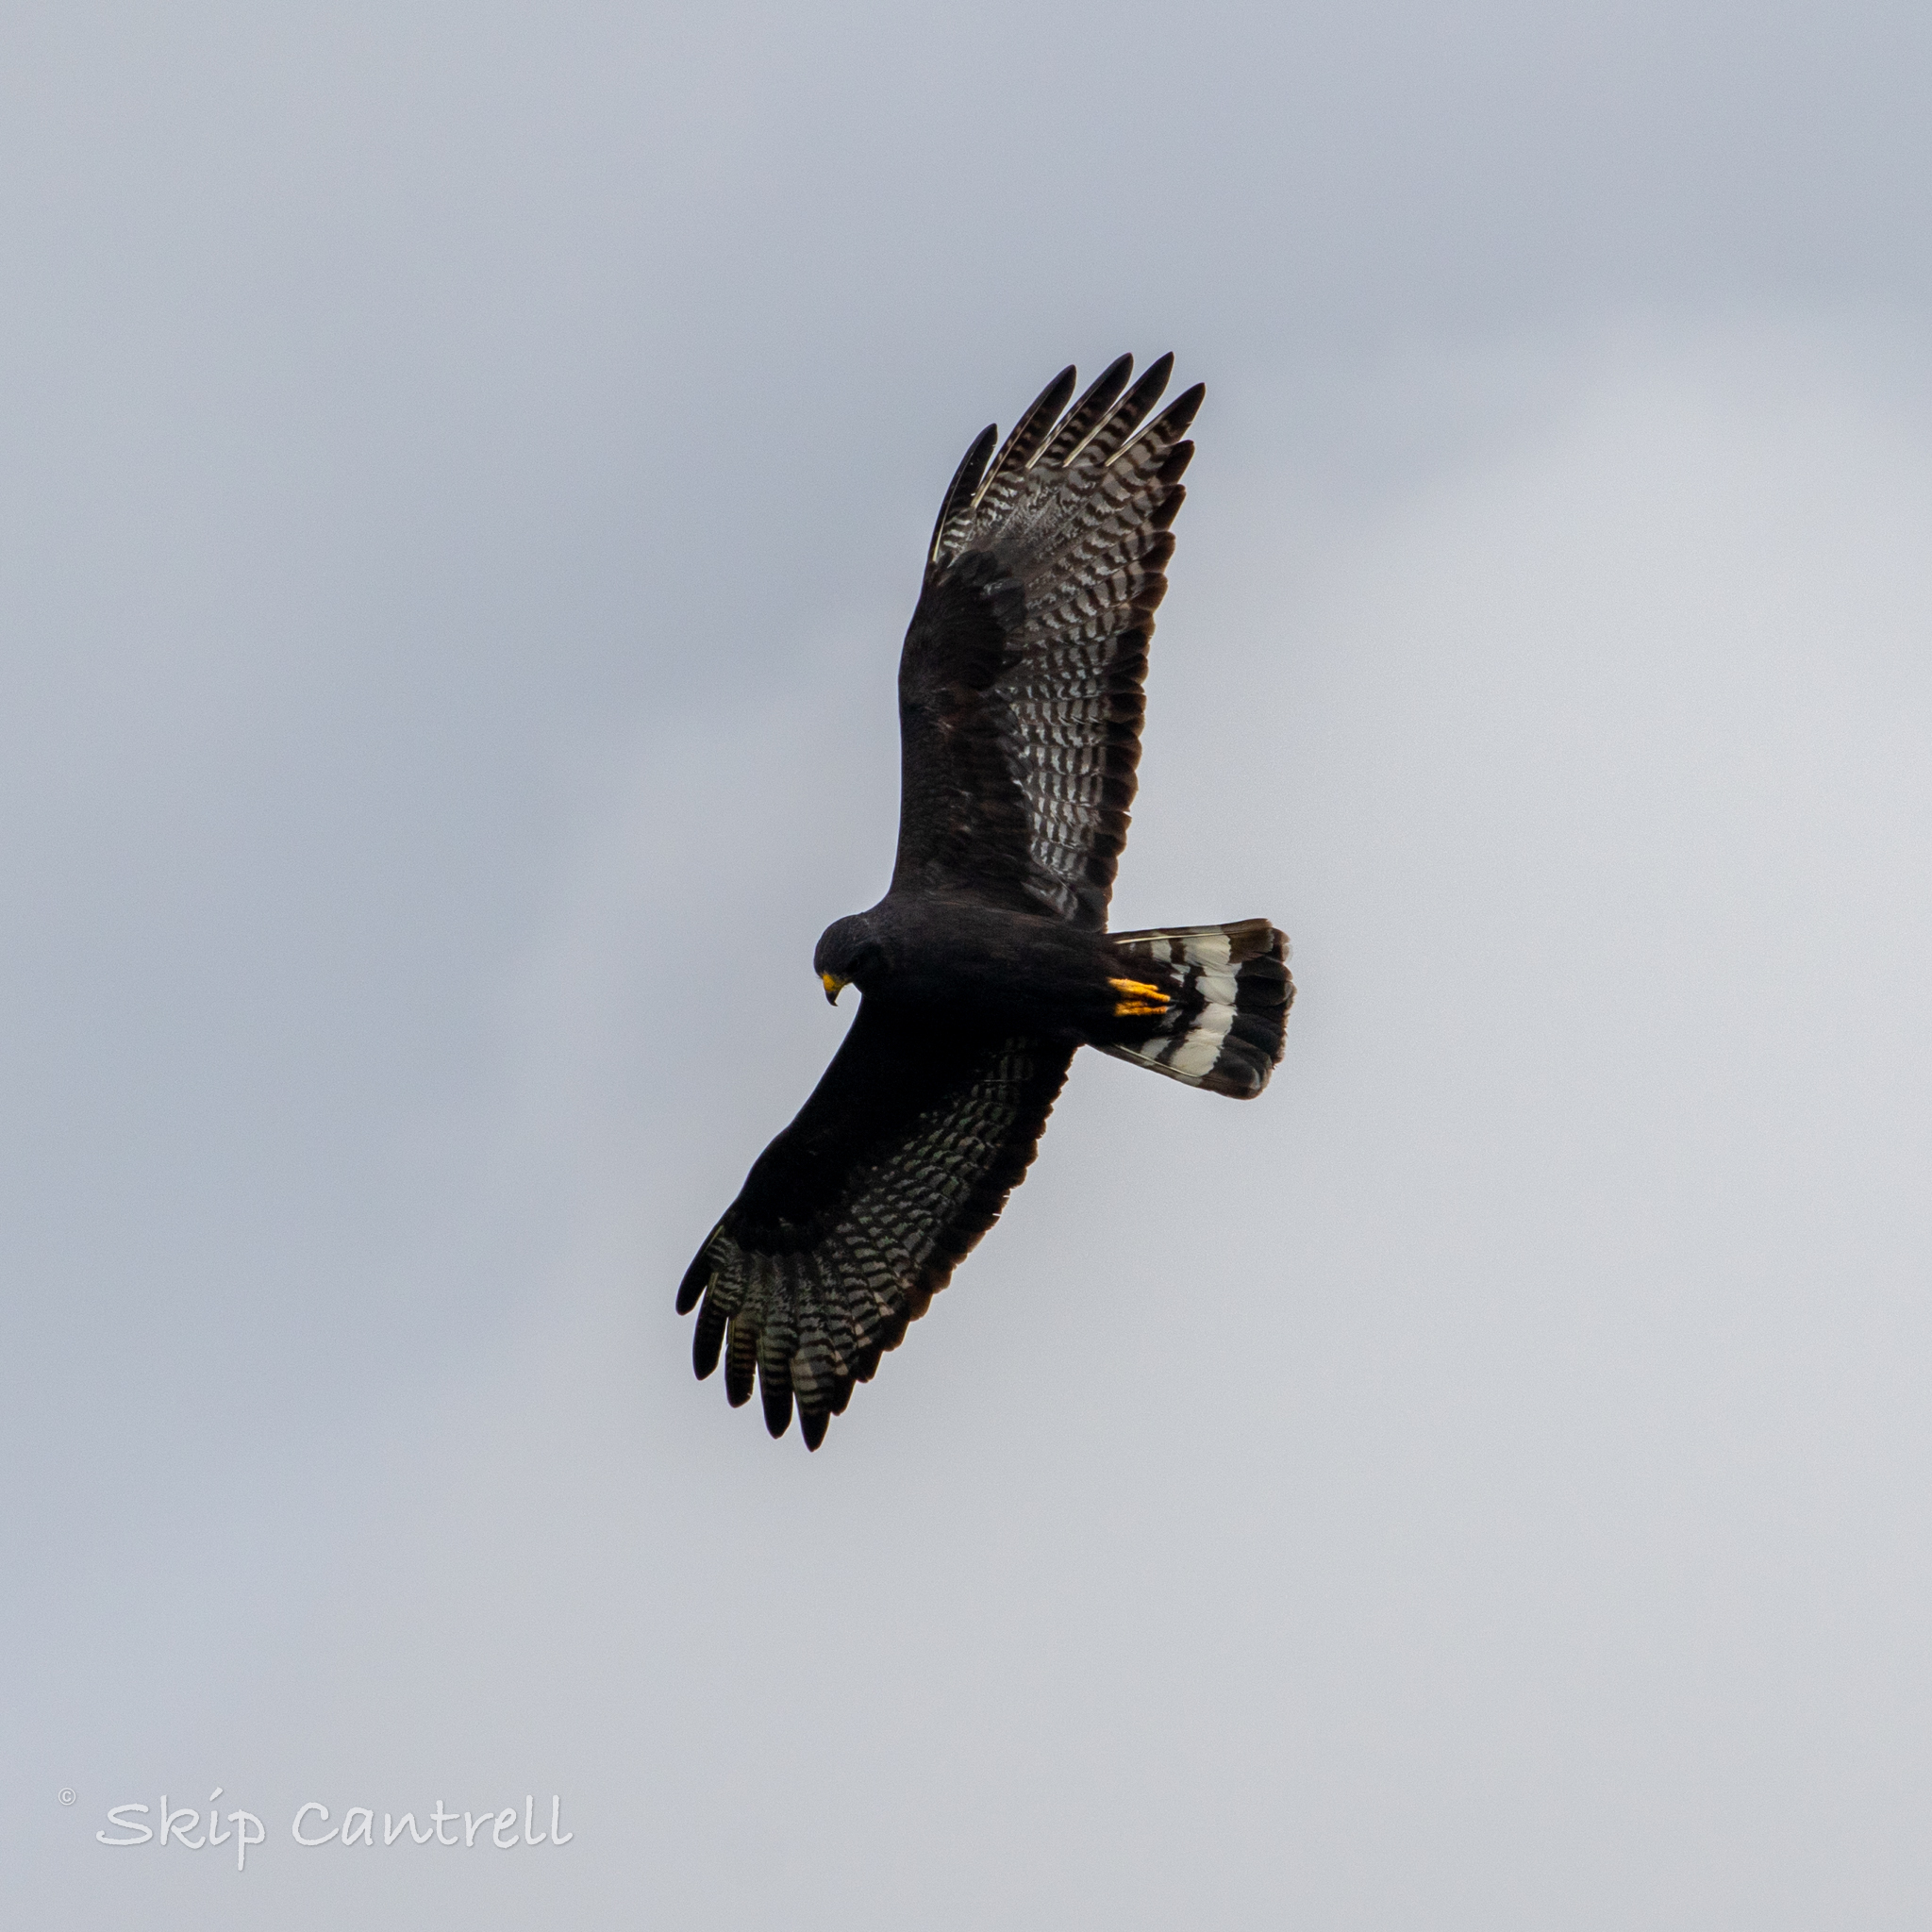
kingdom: Animalia
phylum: Chordata
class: Aves
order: Accipitriformes
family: Accipitridae
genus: Buteo
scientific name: Buteo albonotatus
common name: Zone-tailed hawk
